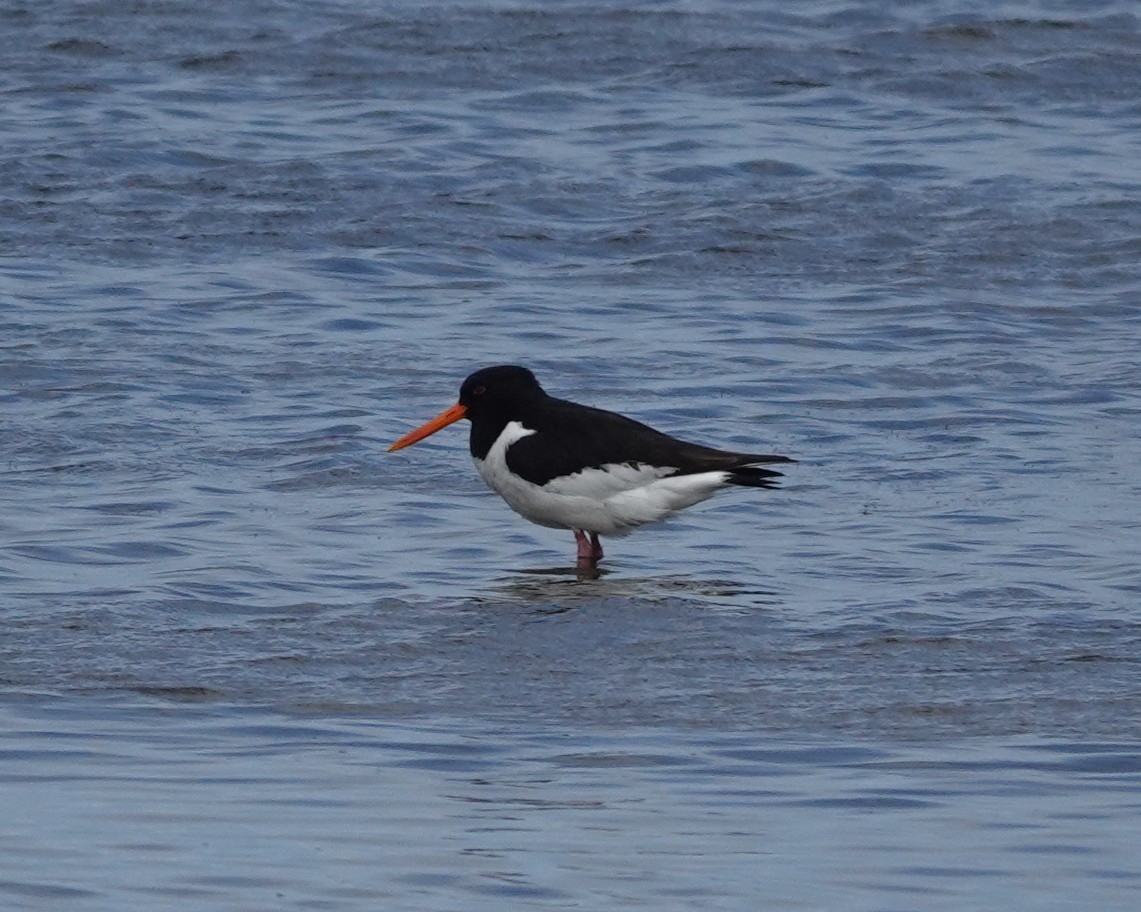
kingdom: Animalia
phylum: Chordata
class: Aves
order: Charadriiformes
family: Haematopodidae
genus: Haematopus
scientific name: Haematopus ostralegus
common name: Eurasian oystercatcher
